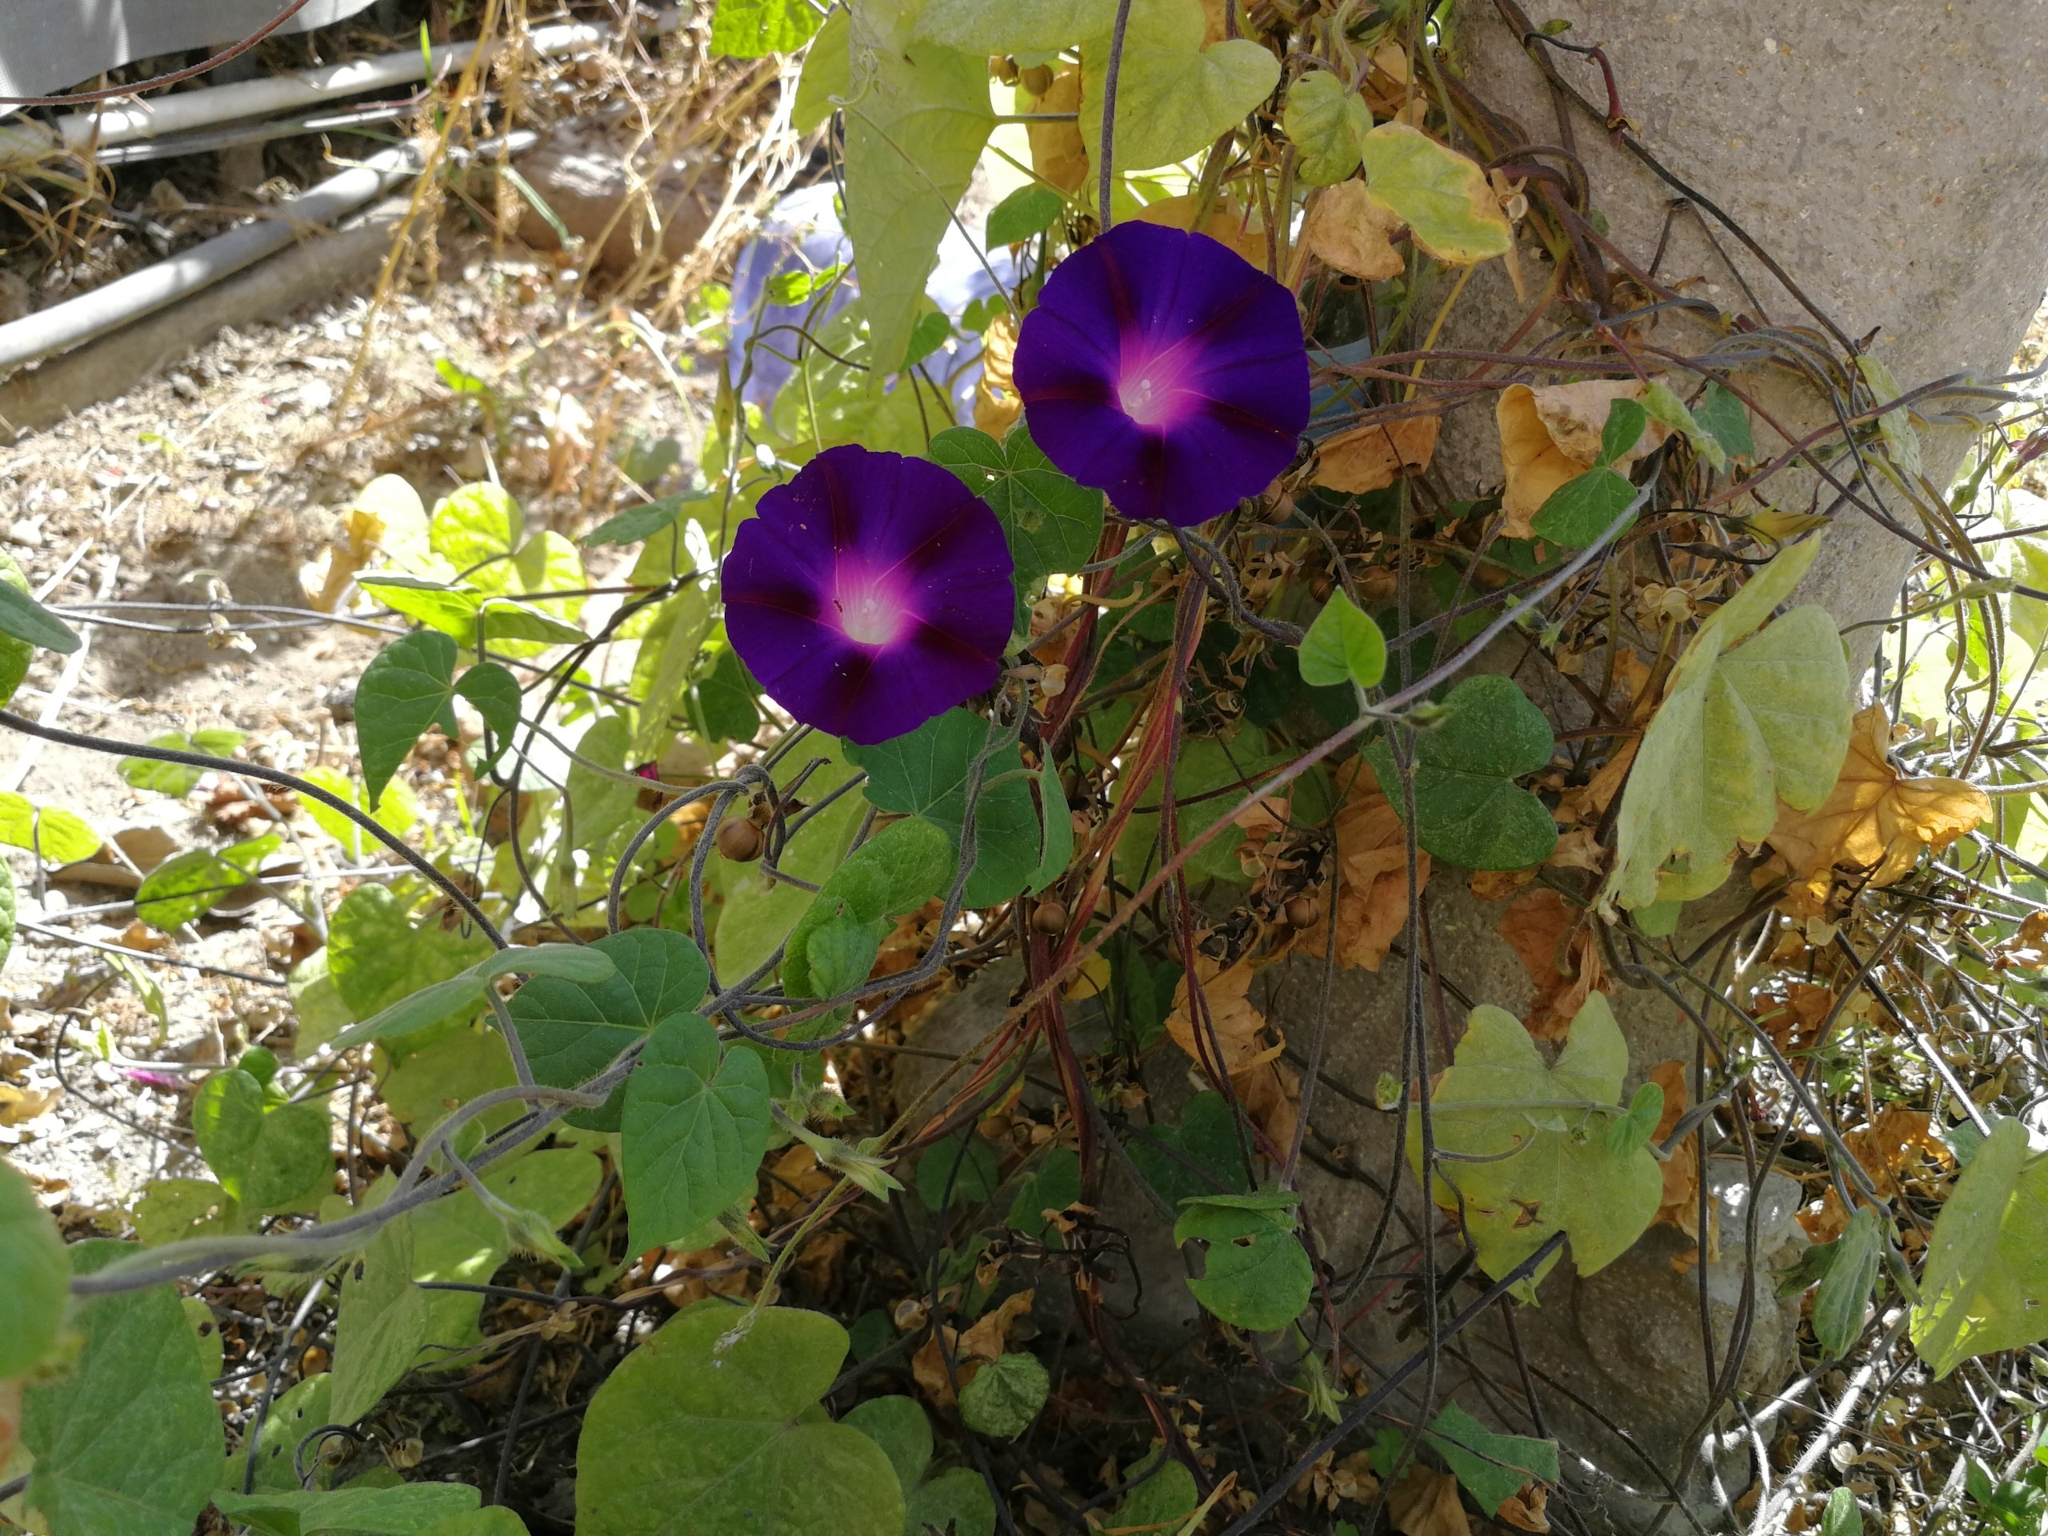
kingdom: Plantae
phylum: Tracheophyta
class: Magnoliopsida
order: Solanales
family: Convolvulaceae
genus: Ipomoea
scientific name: Ipomoea purpurea
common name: Common morning-glory
